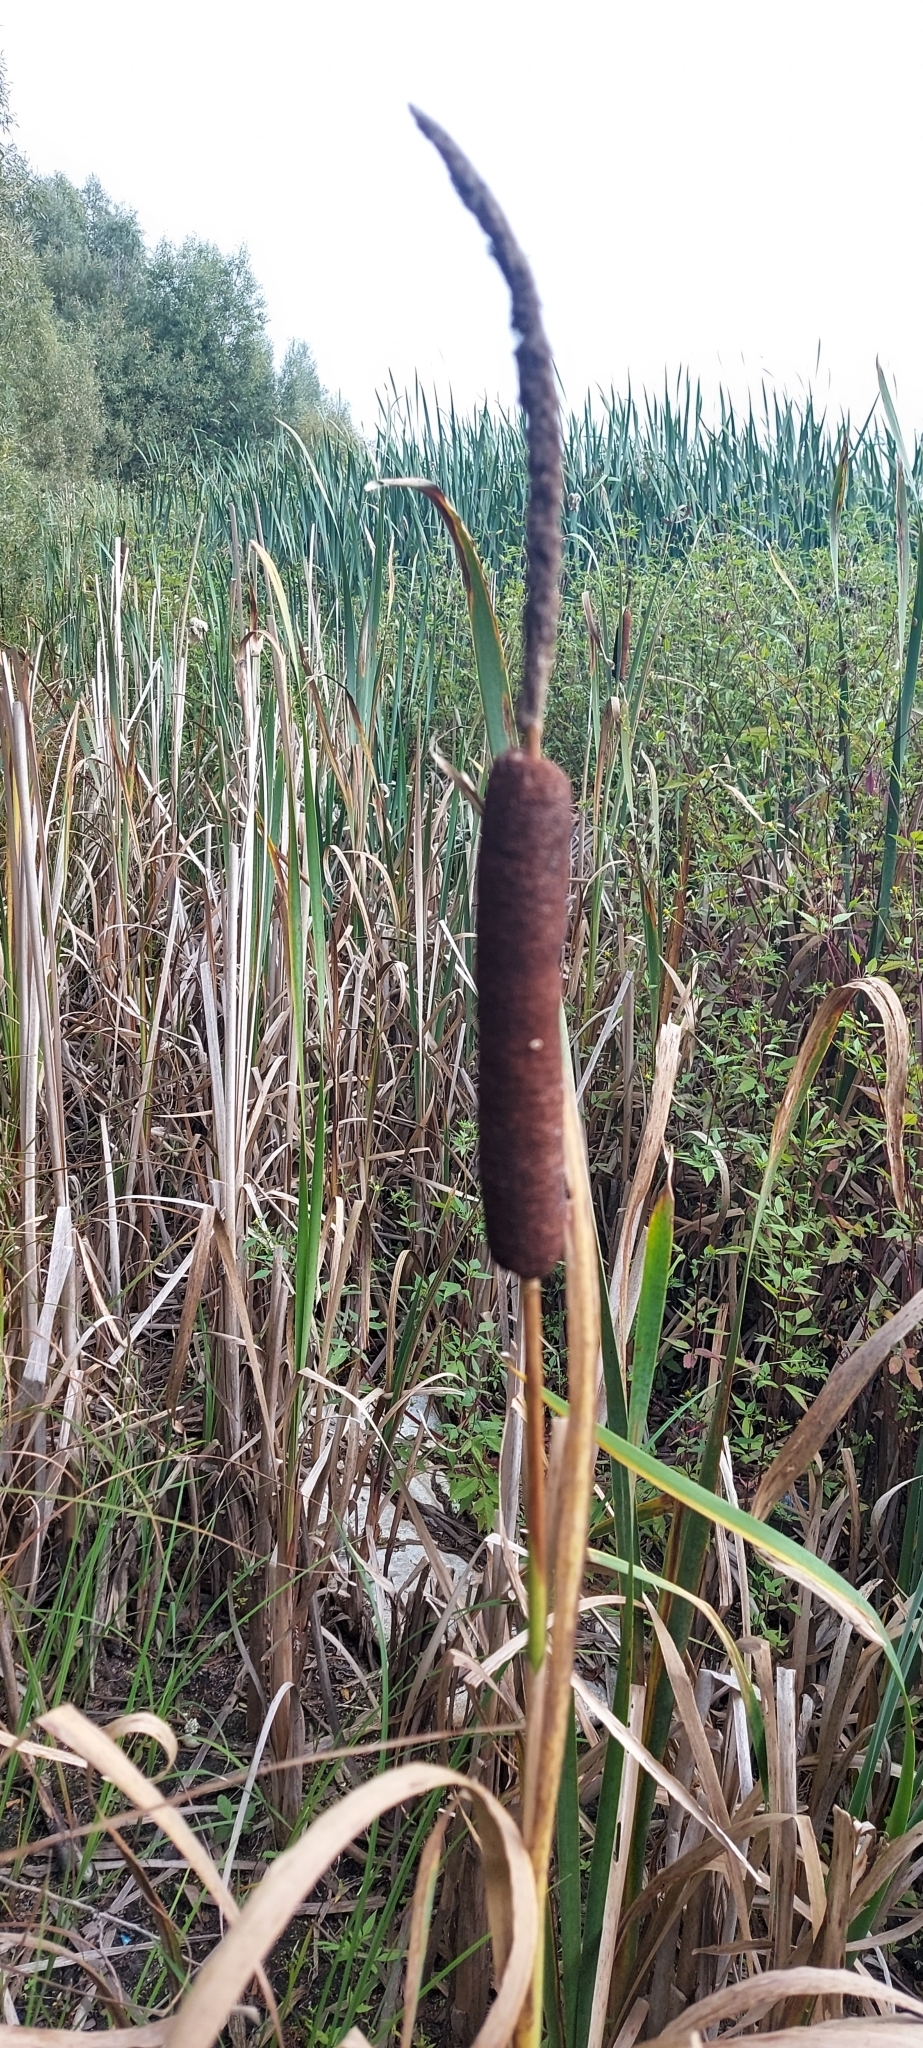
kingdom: Plantae
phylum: Tracheophyta
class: Liliopsida
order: Poales
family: Typhaceae
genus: Typha
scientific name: Typha latifolia
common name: Broadleaf cattail
